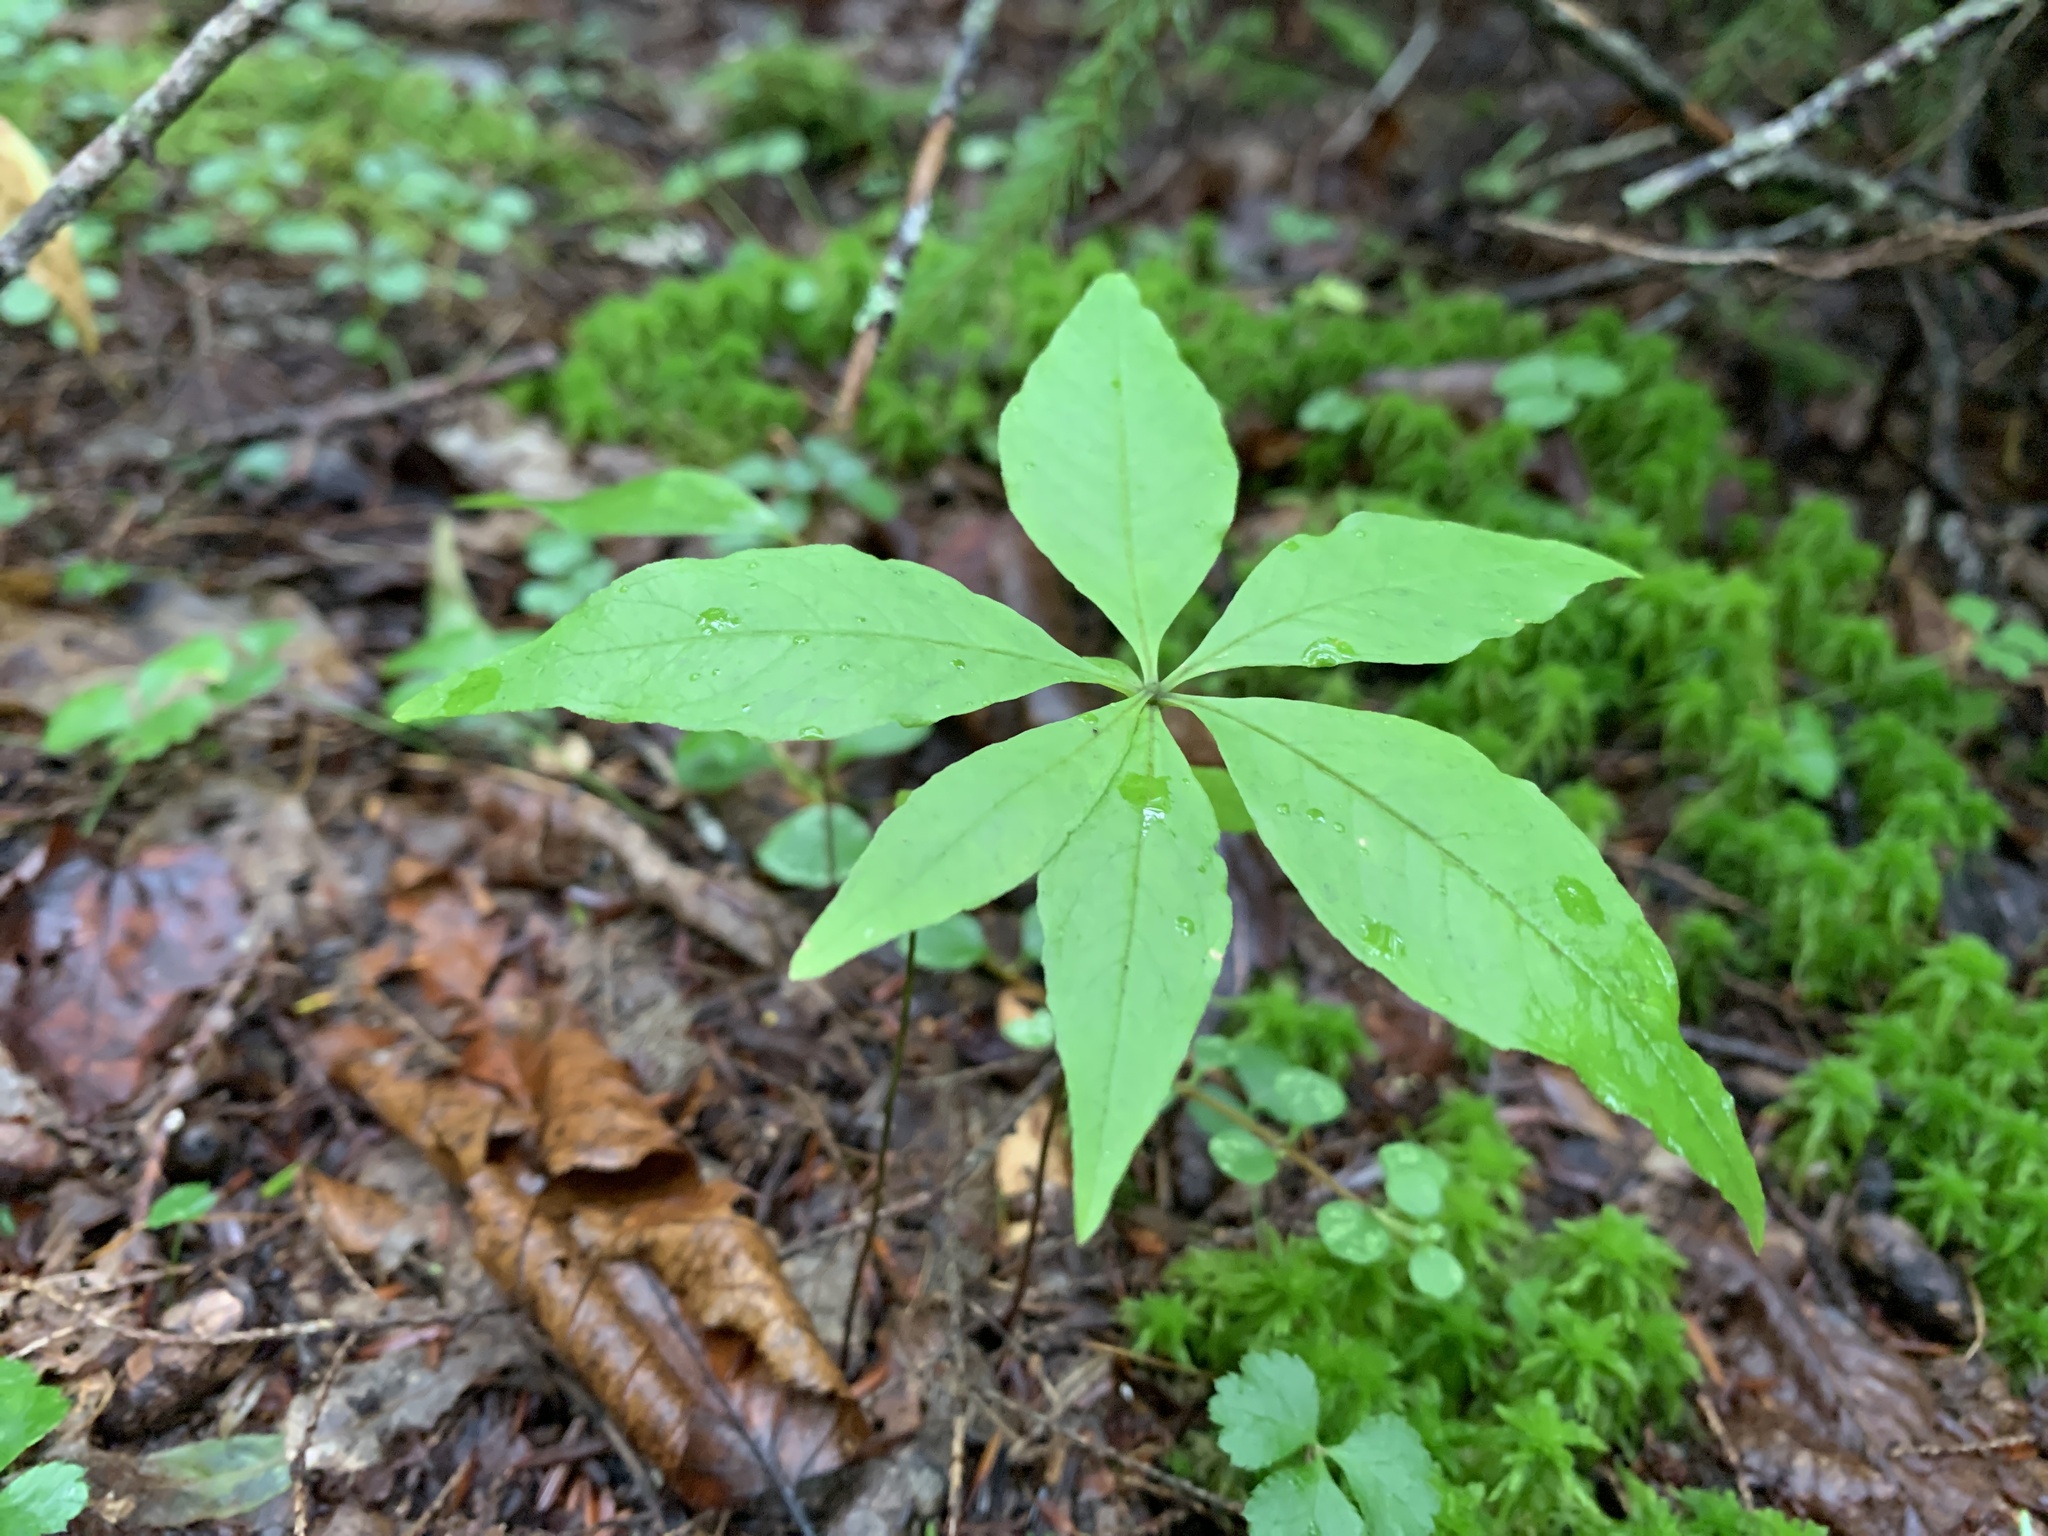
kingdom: Plantae
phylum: Tracheophyta
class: Magnoliopsida
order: Ericales
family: Primulaceae
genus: Lysimachia
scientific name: Lysimachia borealis
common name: American starflower
